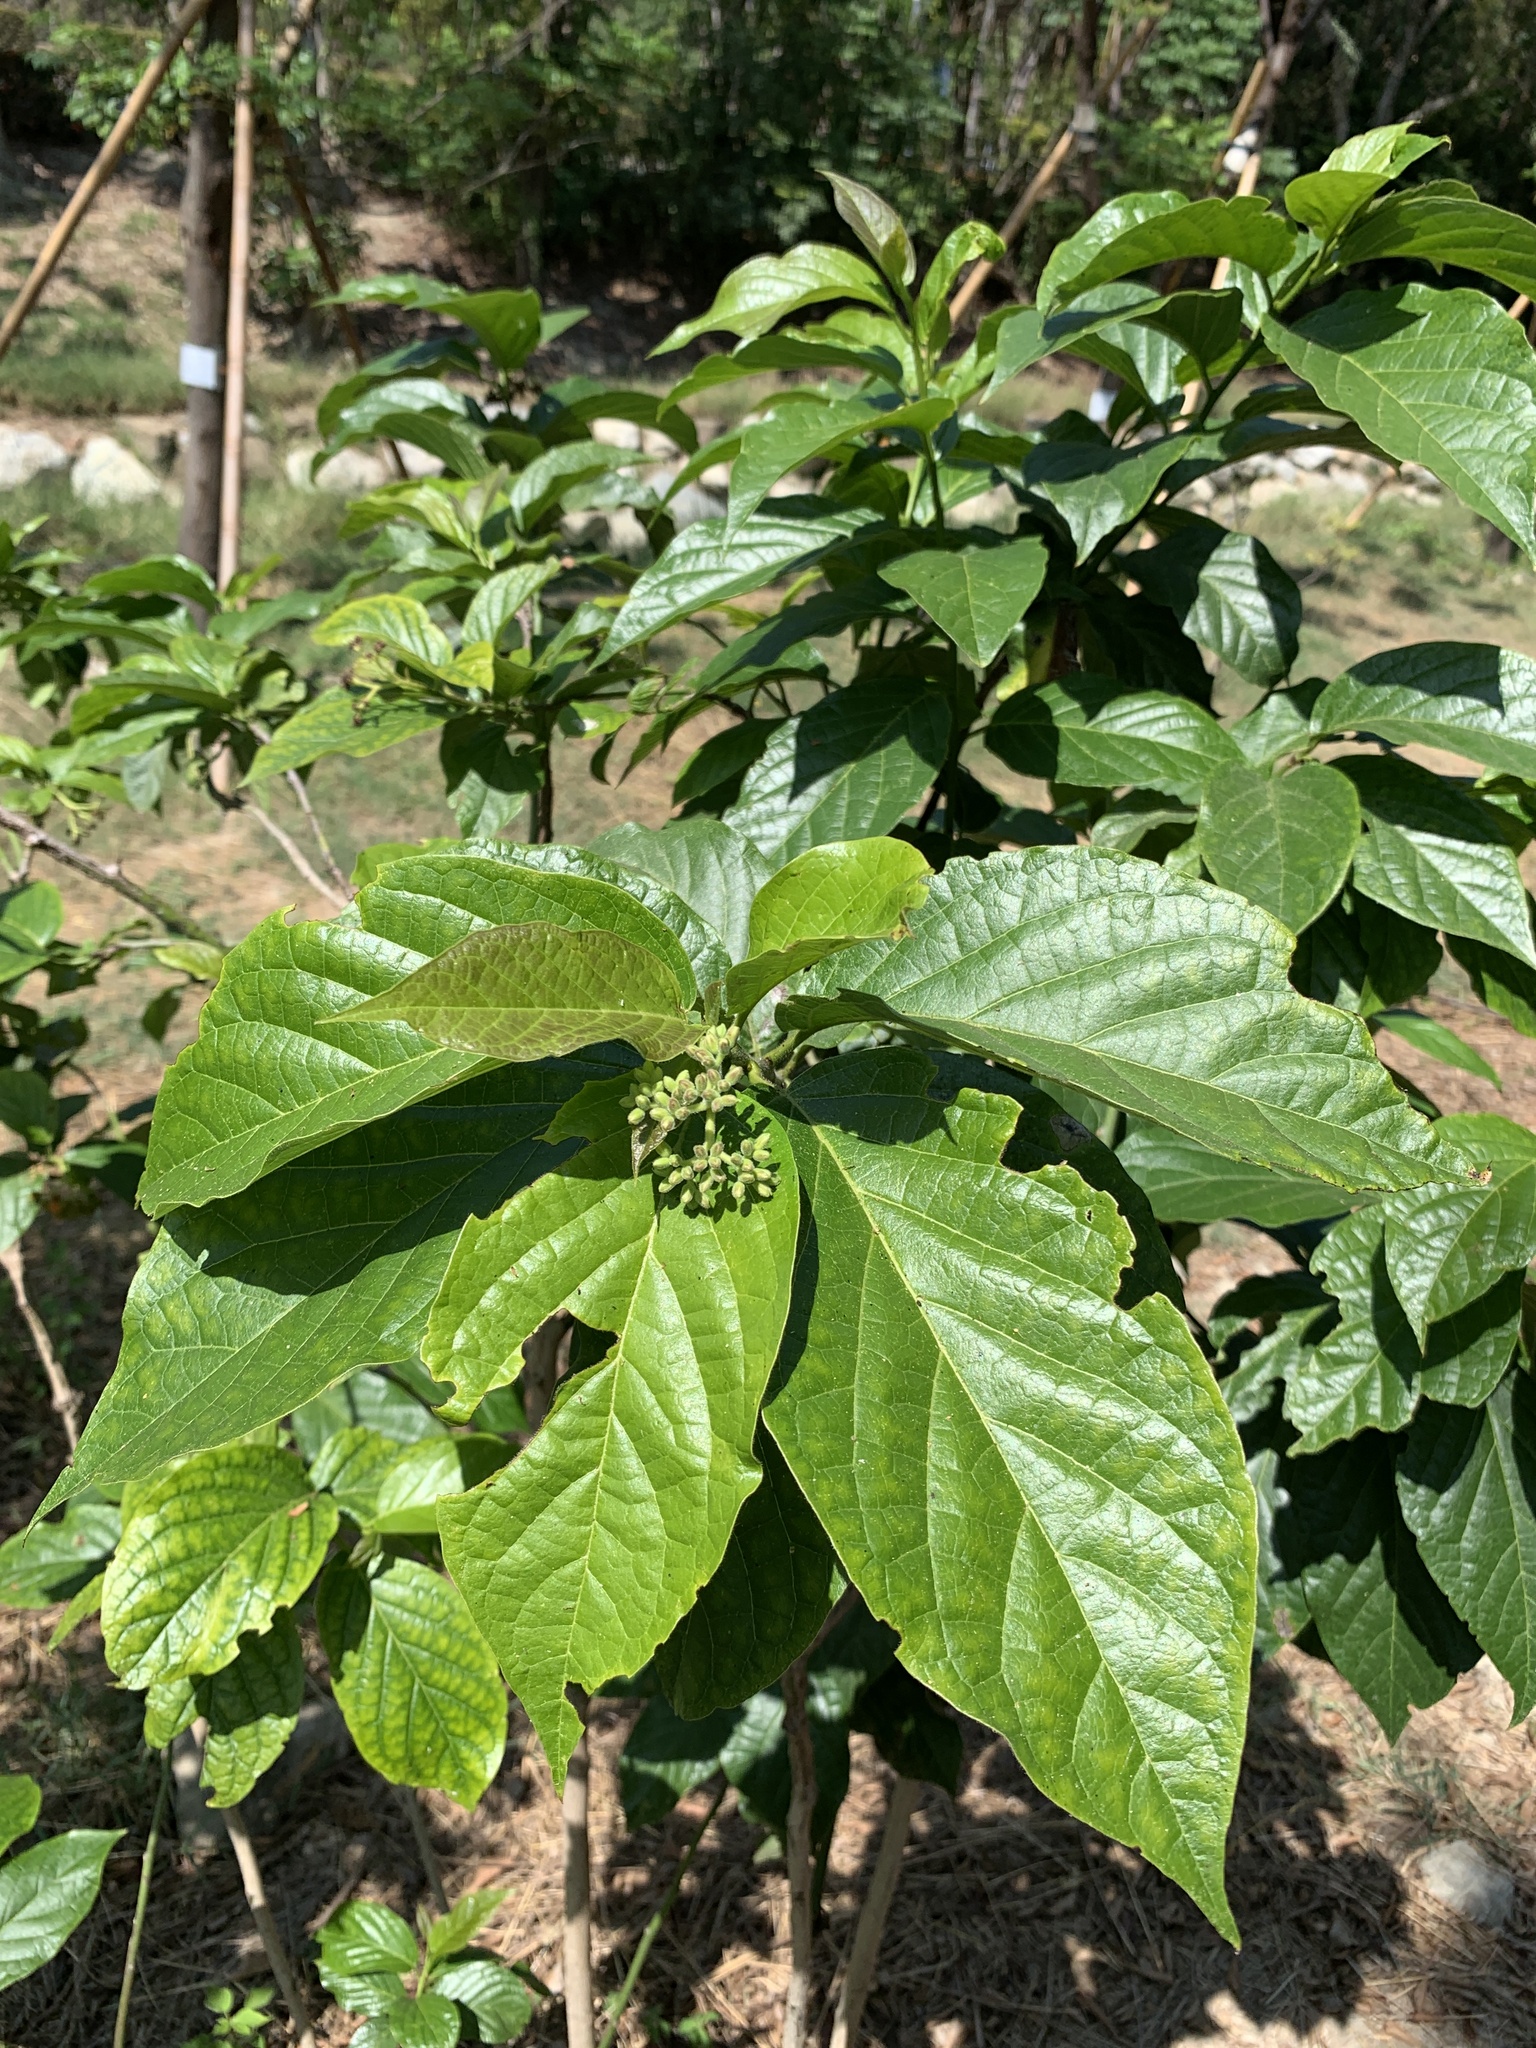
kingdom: Plantae
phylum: Tracheophyta
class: Magnoliopsida
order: Boraginales
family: Ehretiaceae
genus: Ehretia
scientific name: Ehretia resinosa
